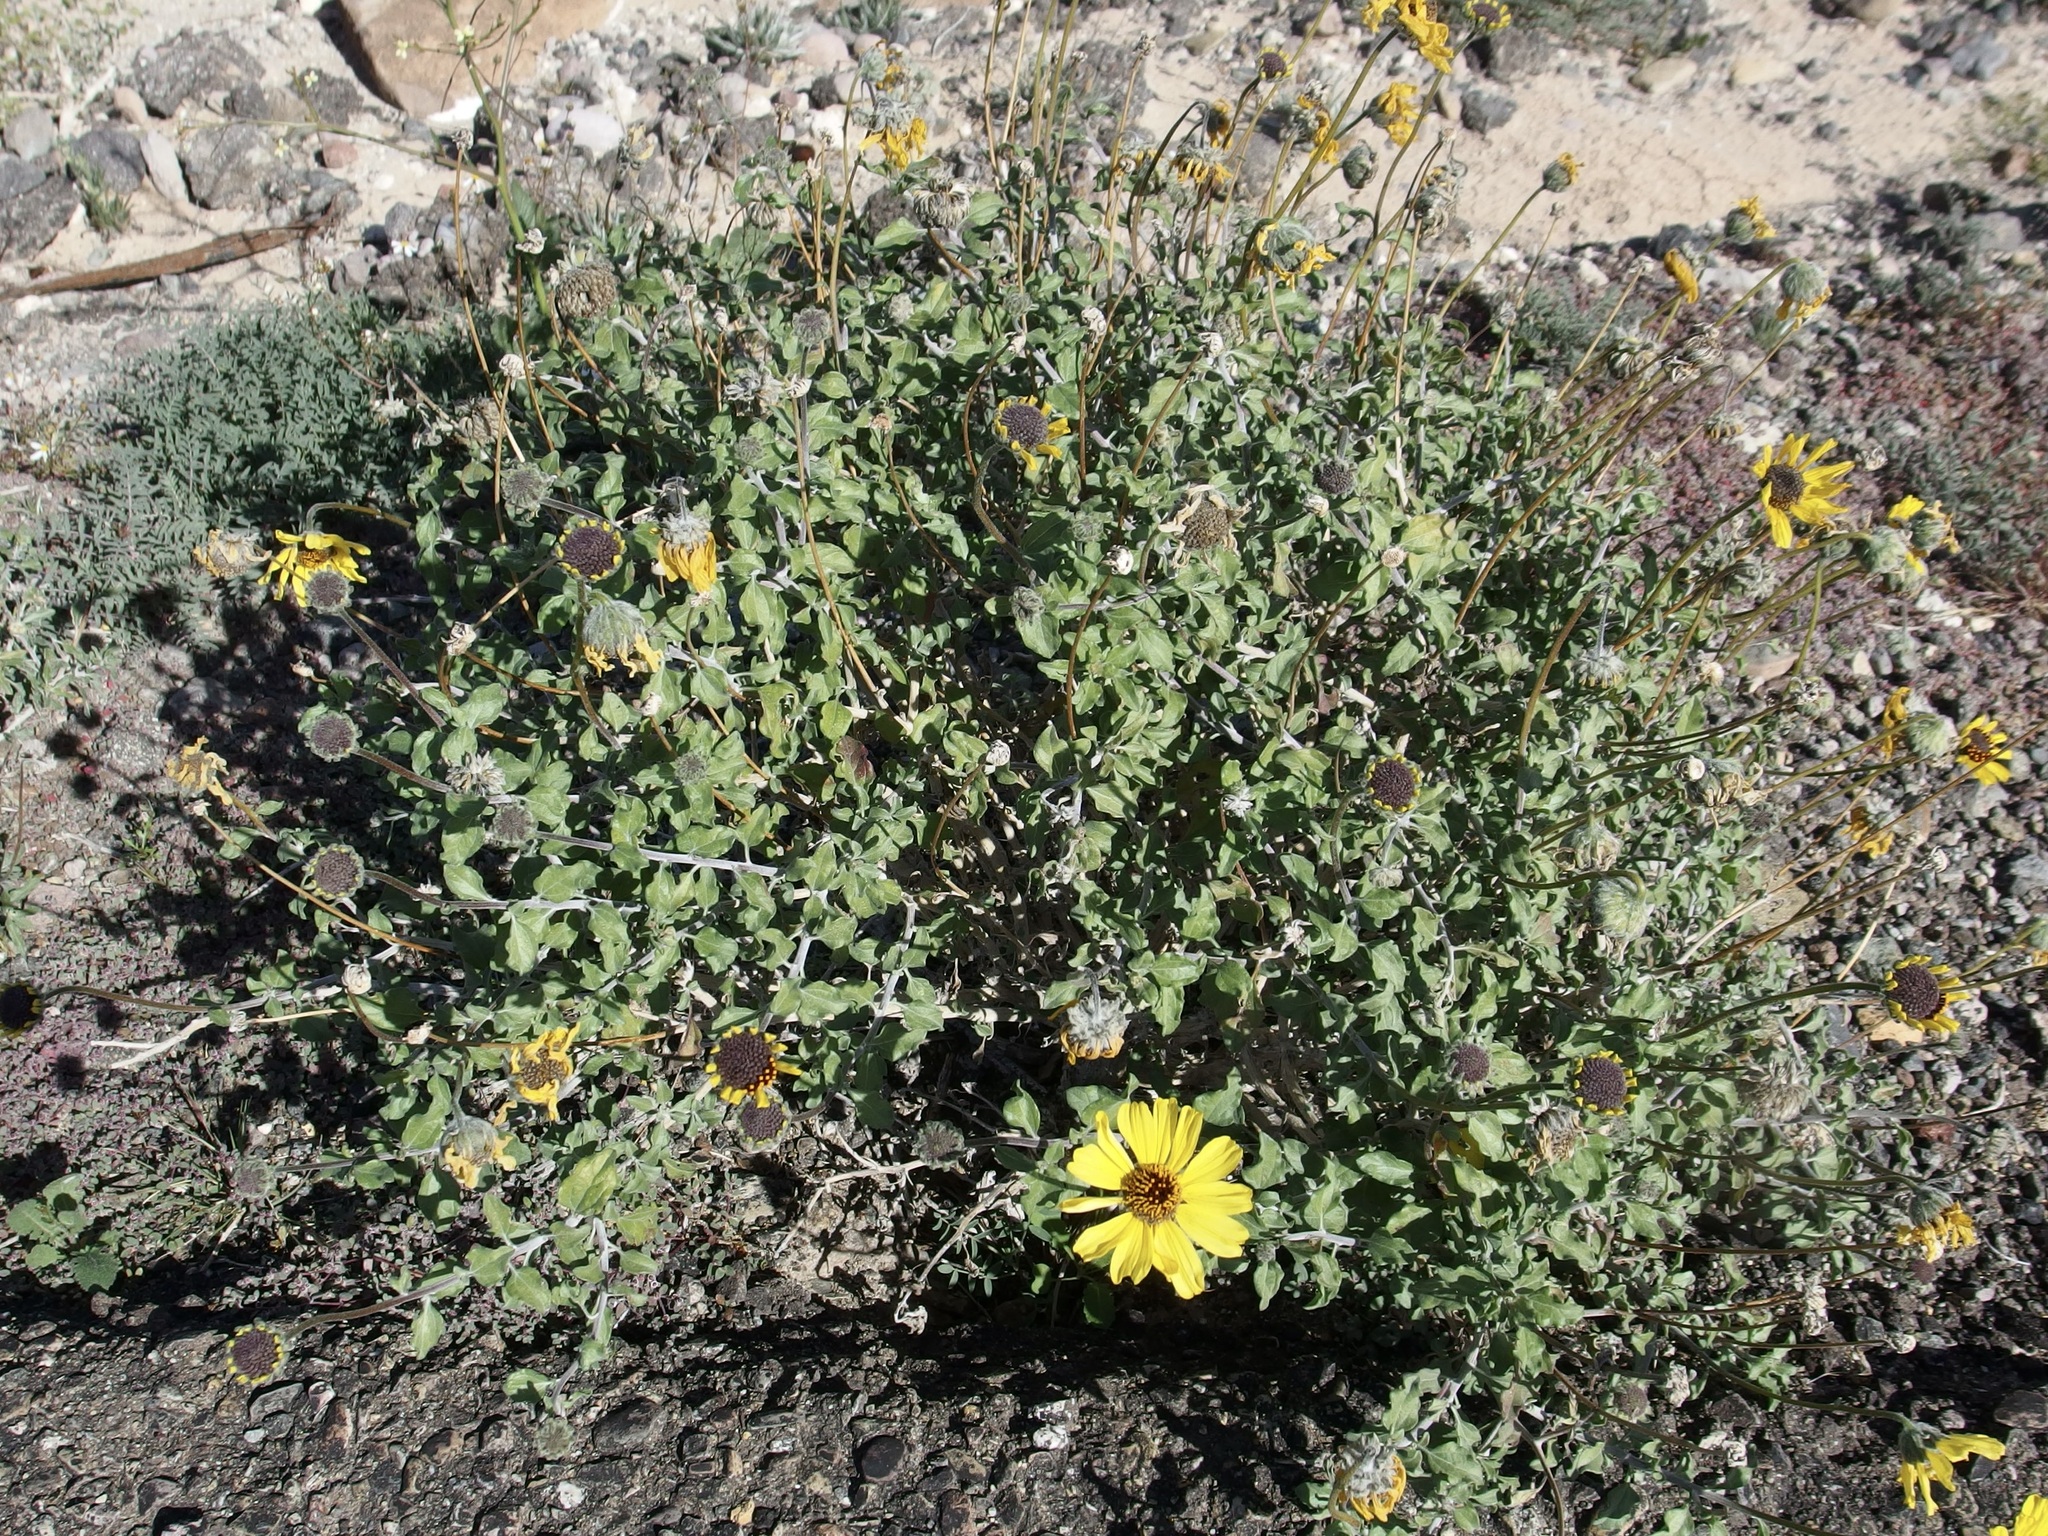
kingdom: Plantae
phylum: Tracheophyta
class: Magnoliopsida
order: Asterales
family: Asteraceae
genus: Encelia
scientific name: Encelia asperifolia
